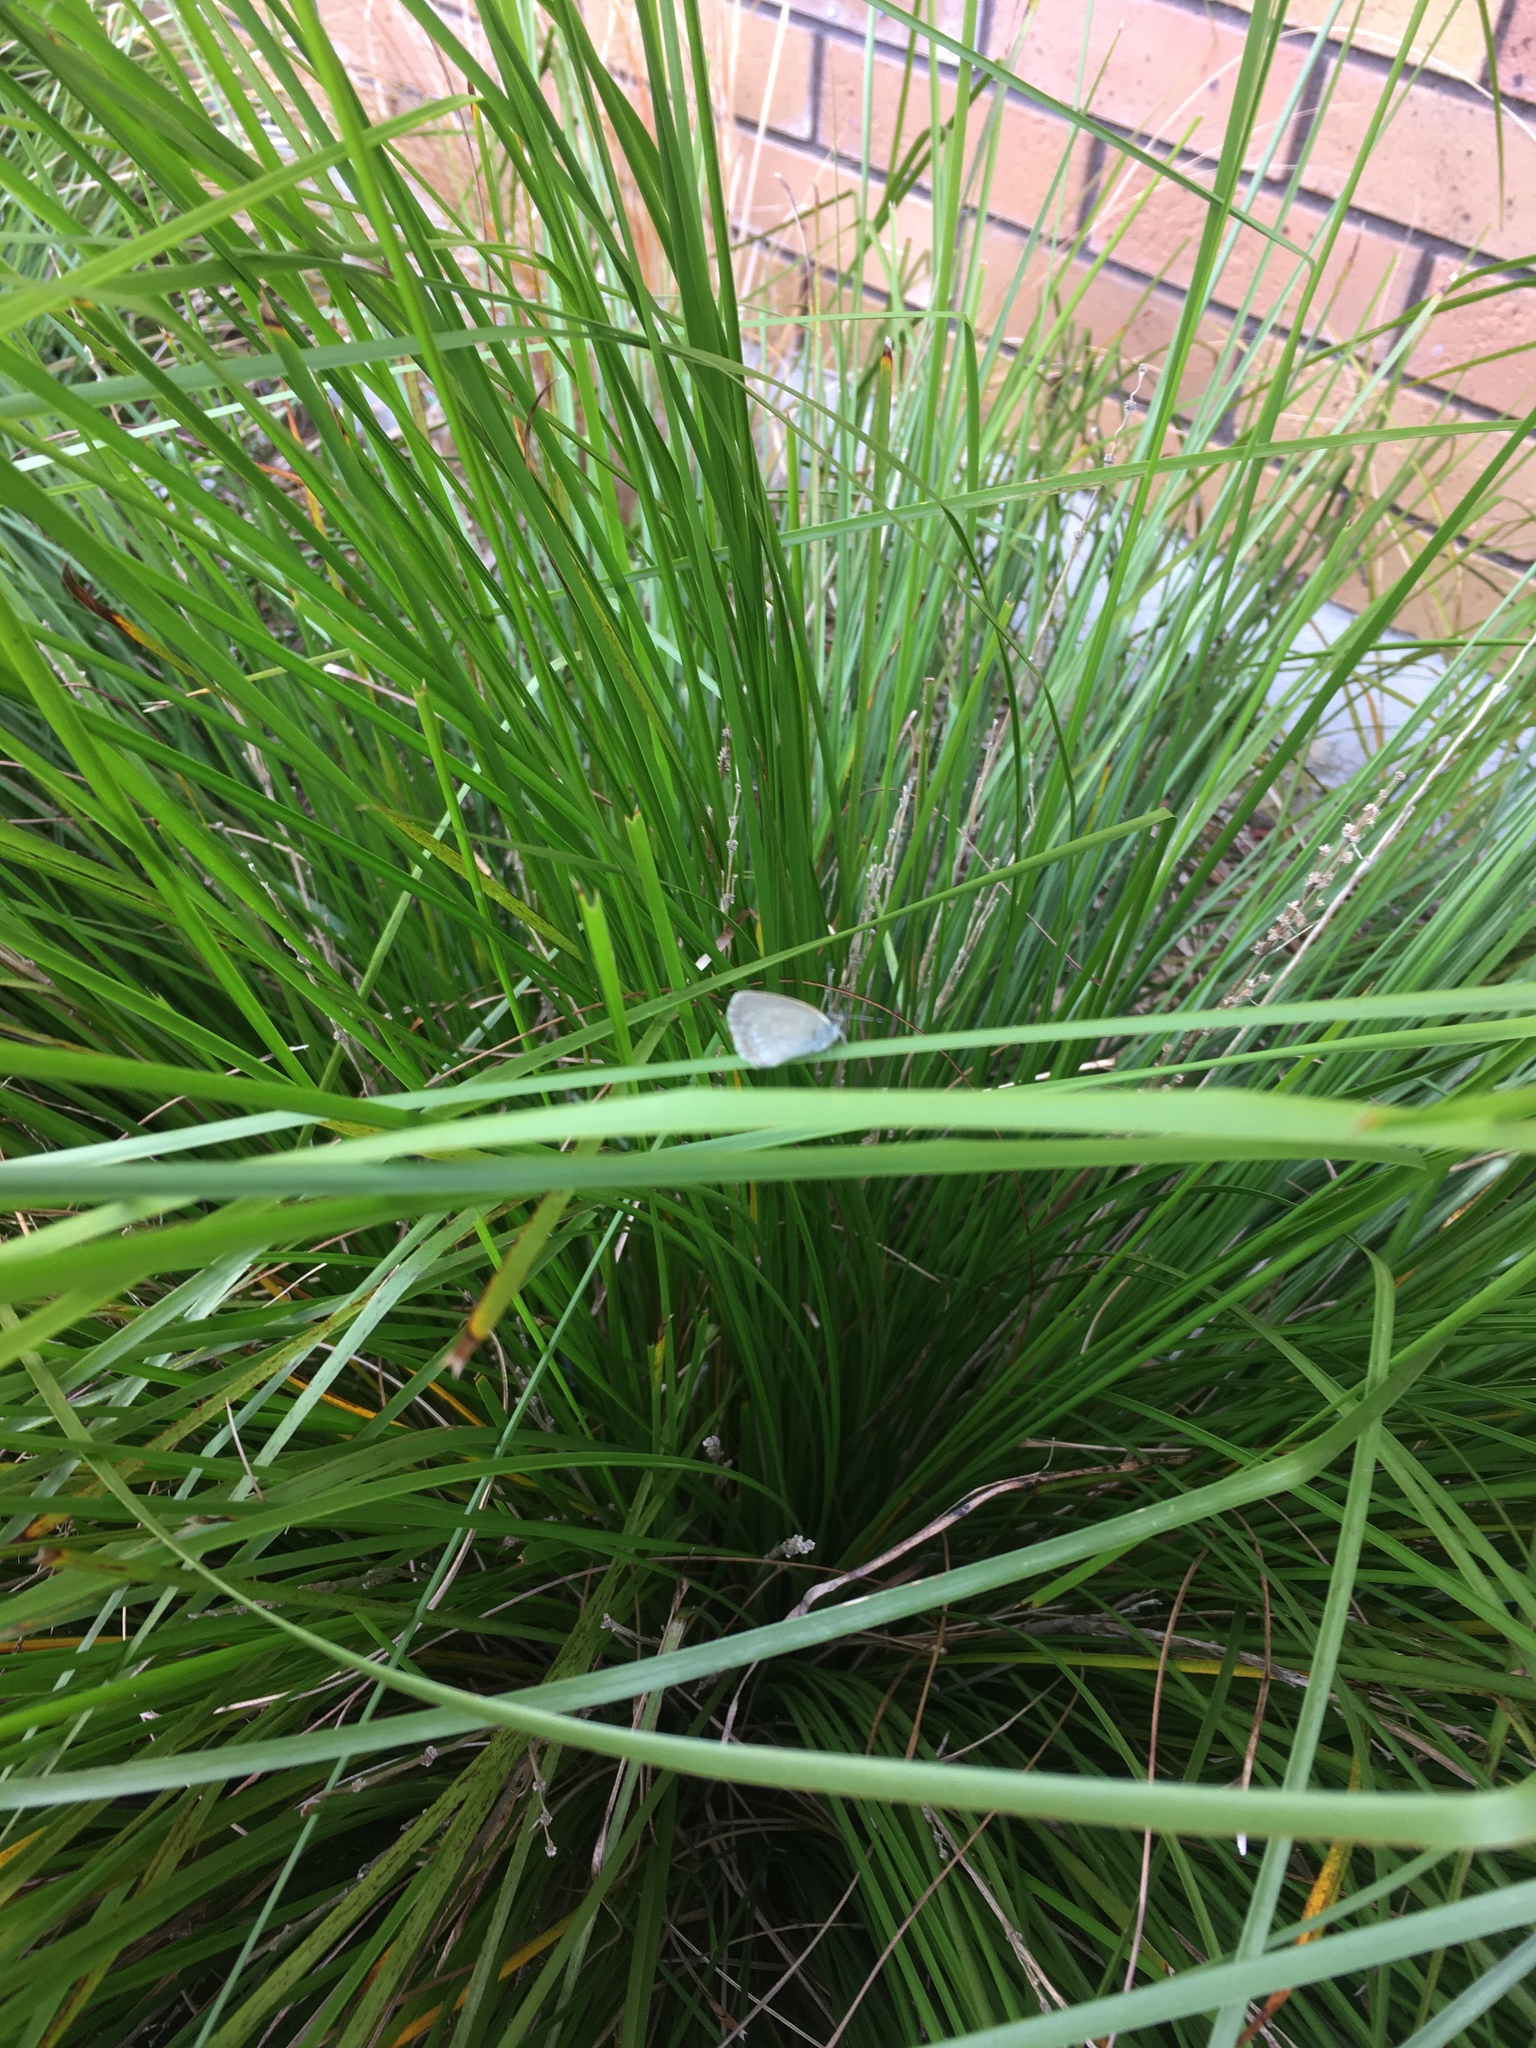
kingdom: Animalia
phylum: Arthropoda
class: Insecta
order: Lepidoptera
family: Lycaenidae
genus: Zizina
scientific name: Zizina labradus
